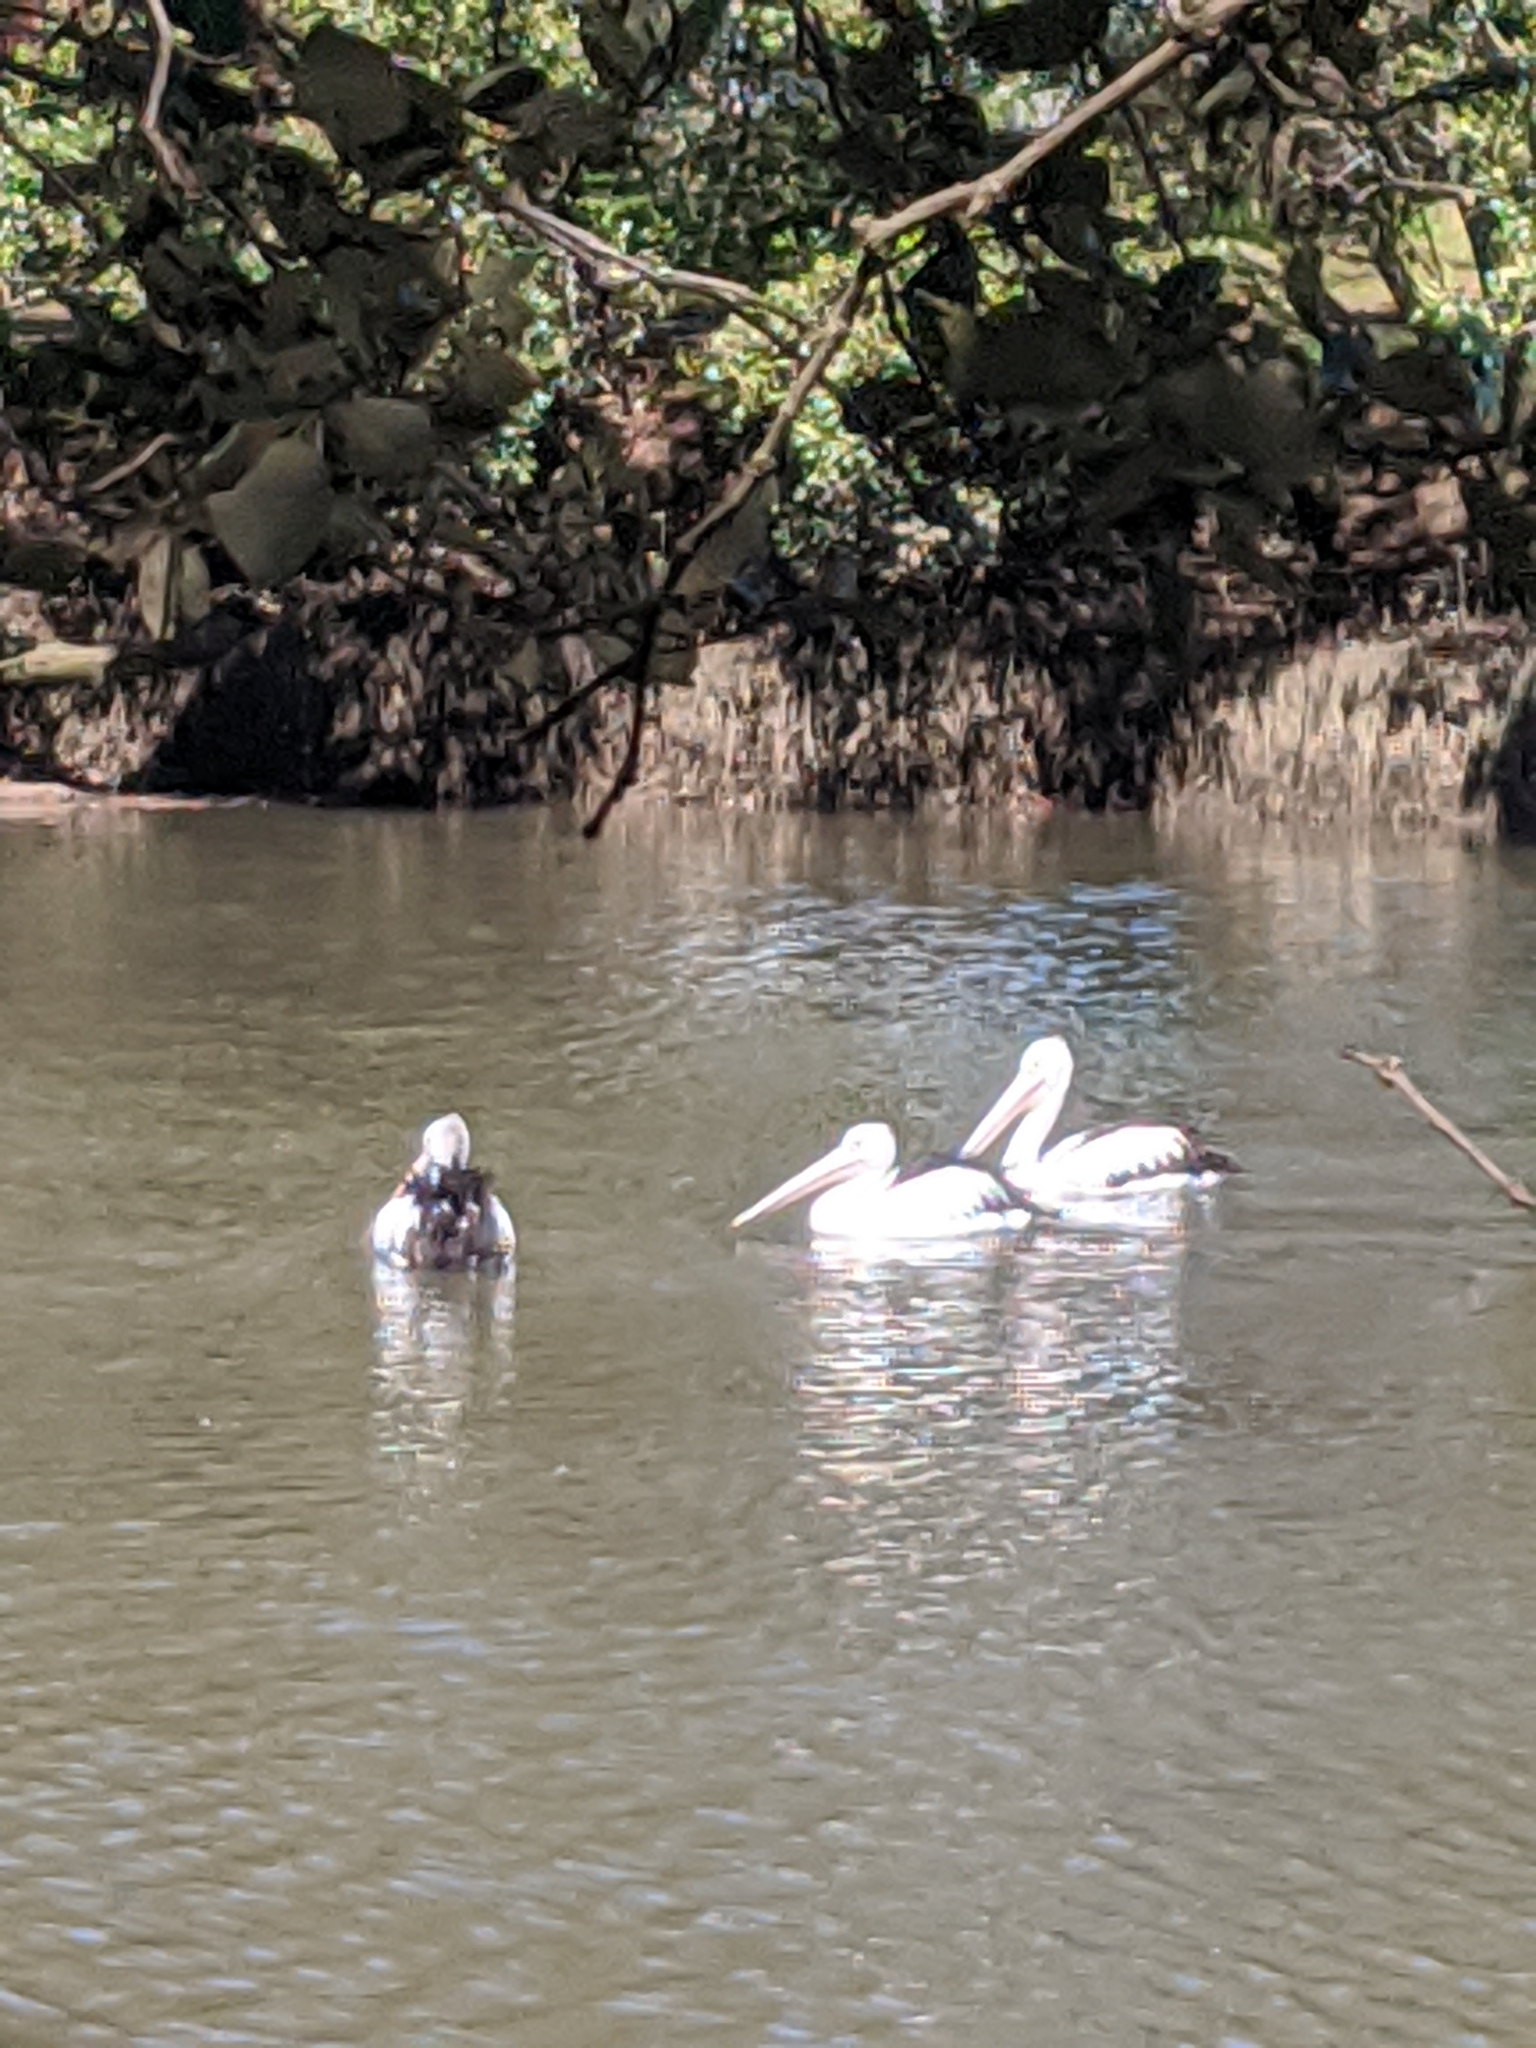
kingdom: Animalia
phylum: Chordata
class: Aves
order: Pelecaniformes
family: Pelecanidae
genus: Pelecanus
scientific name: Pelecanus conspicillatus
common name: Australian pelican
